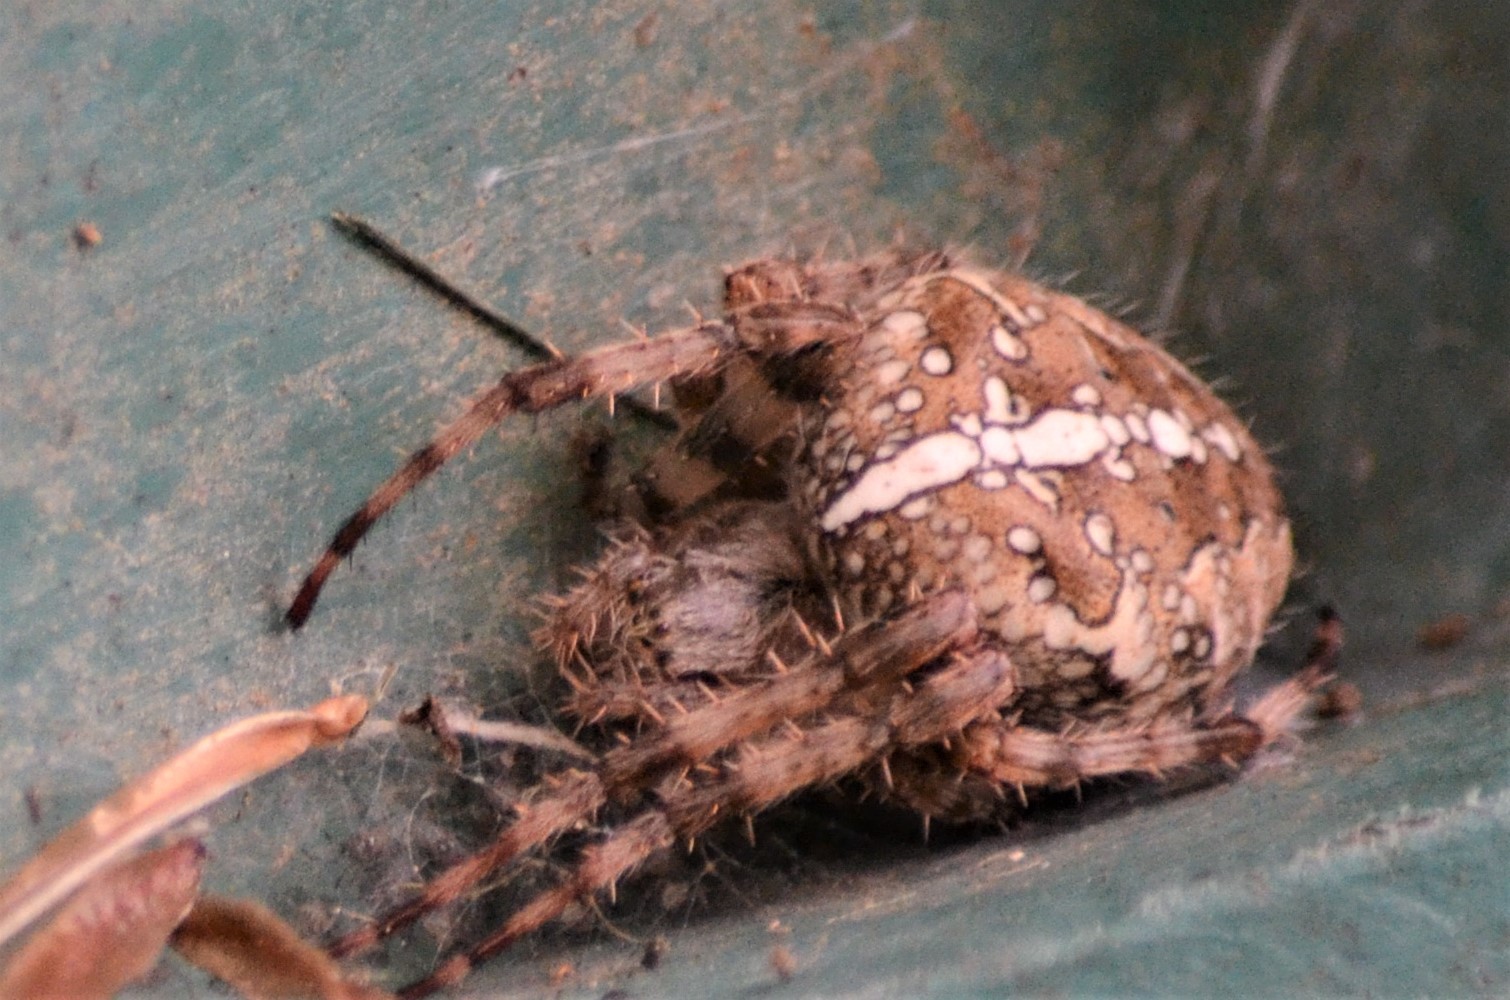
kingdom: Animalia
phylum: Arthropoda
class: Arachnida
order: Araneae
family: Araneidae
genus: Araneus
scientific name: Araneus diadematus
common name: Cross orbweaver
